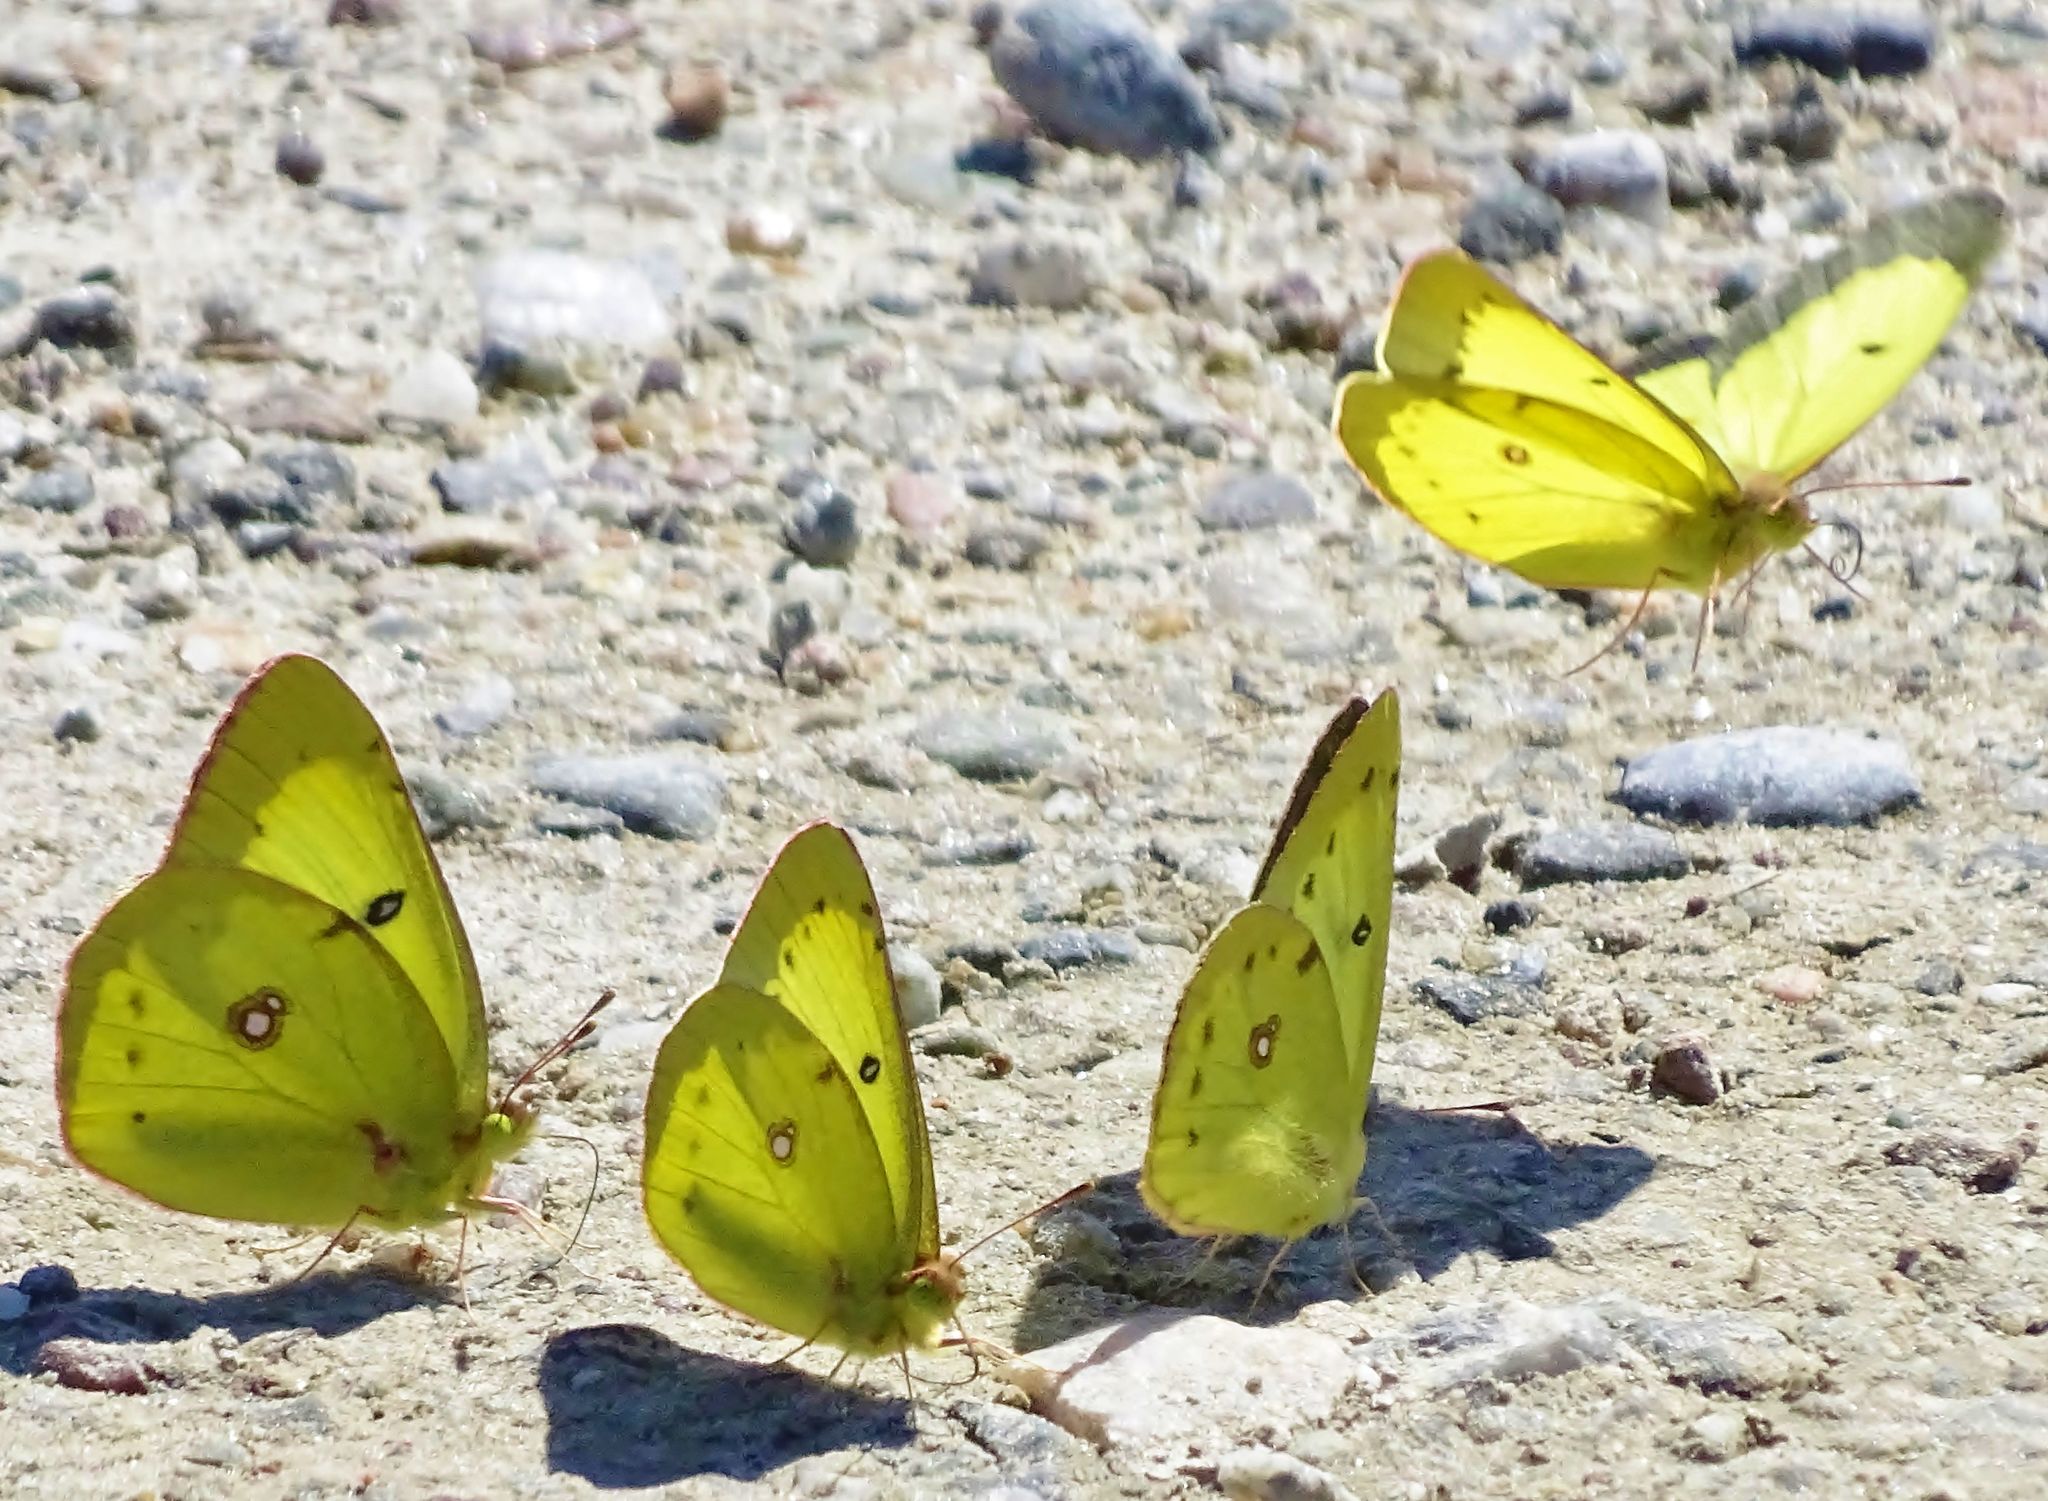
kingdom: Animalia
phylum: Arthropoda
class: Insecta
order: Lepidoptera
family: Pieridae
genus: Colias
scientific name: Colias philodice
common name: Clouded sulphur
